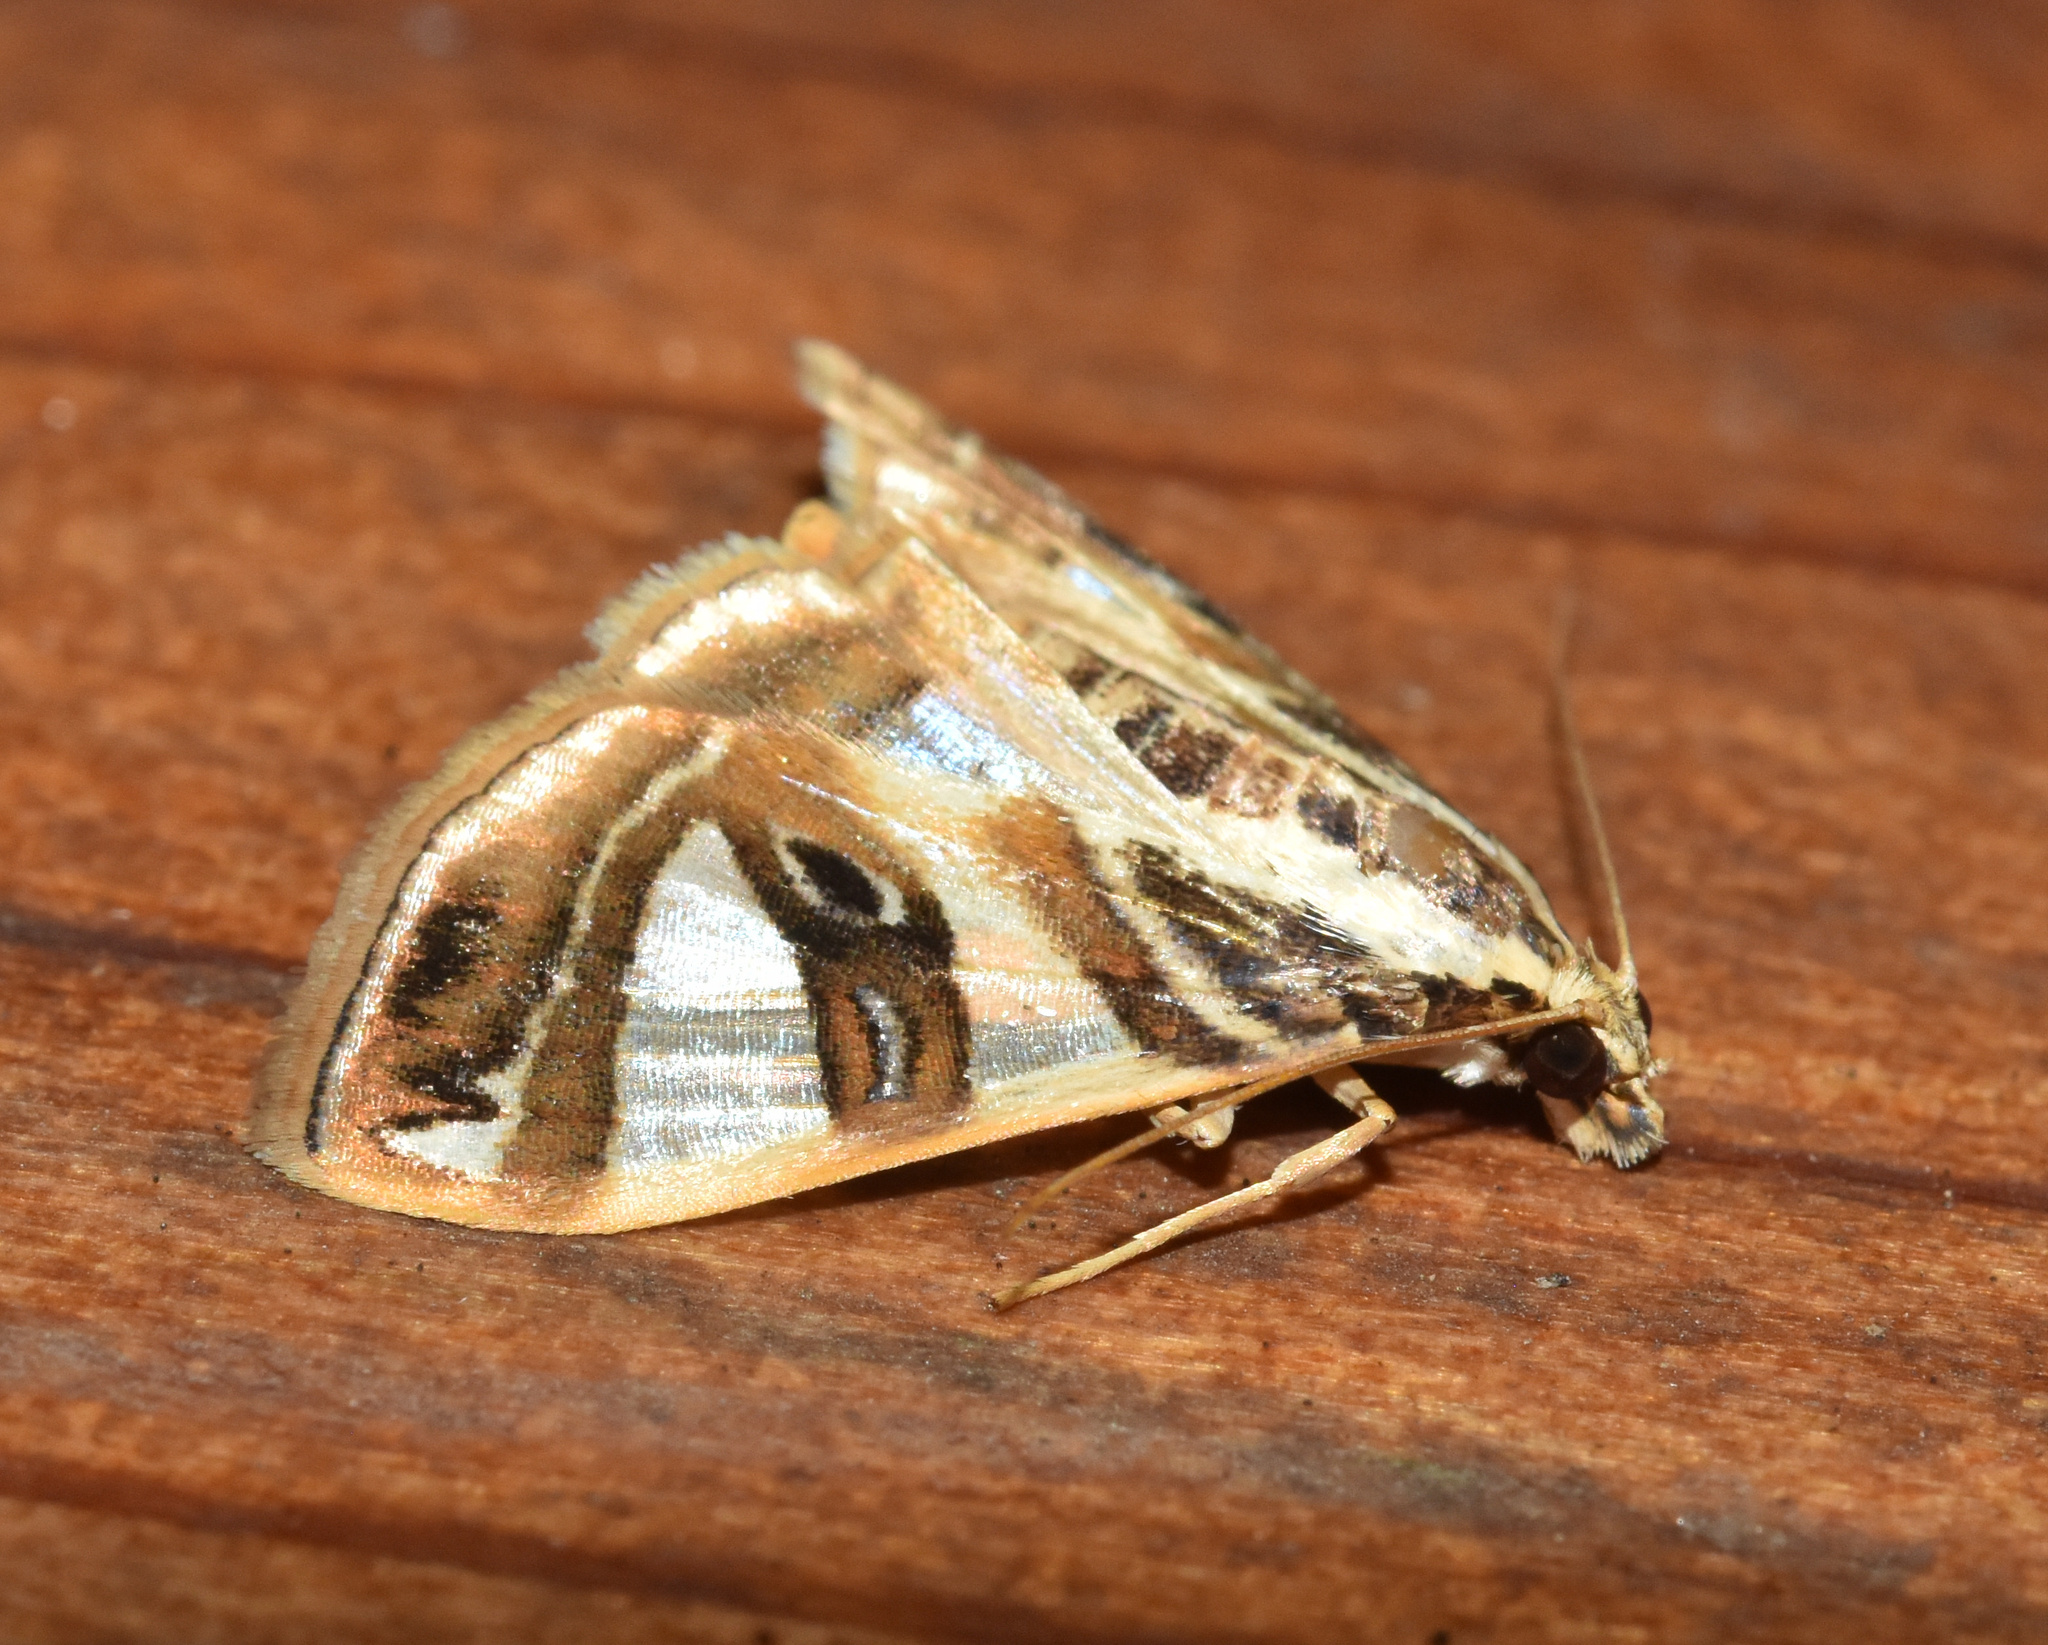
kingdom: Animalia
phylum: Arthropoda
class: Insecta
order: Lepidoptera
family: Crambidae
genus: Glyphodes
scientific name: Glyphodes sycina
